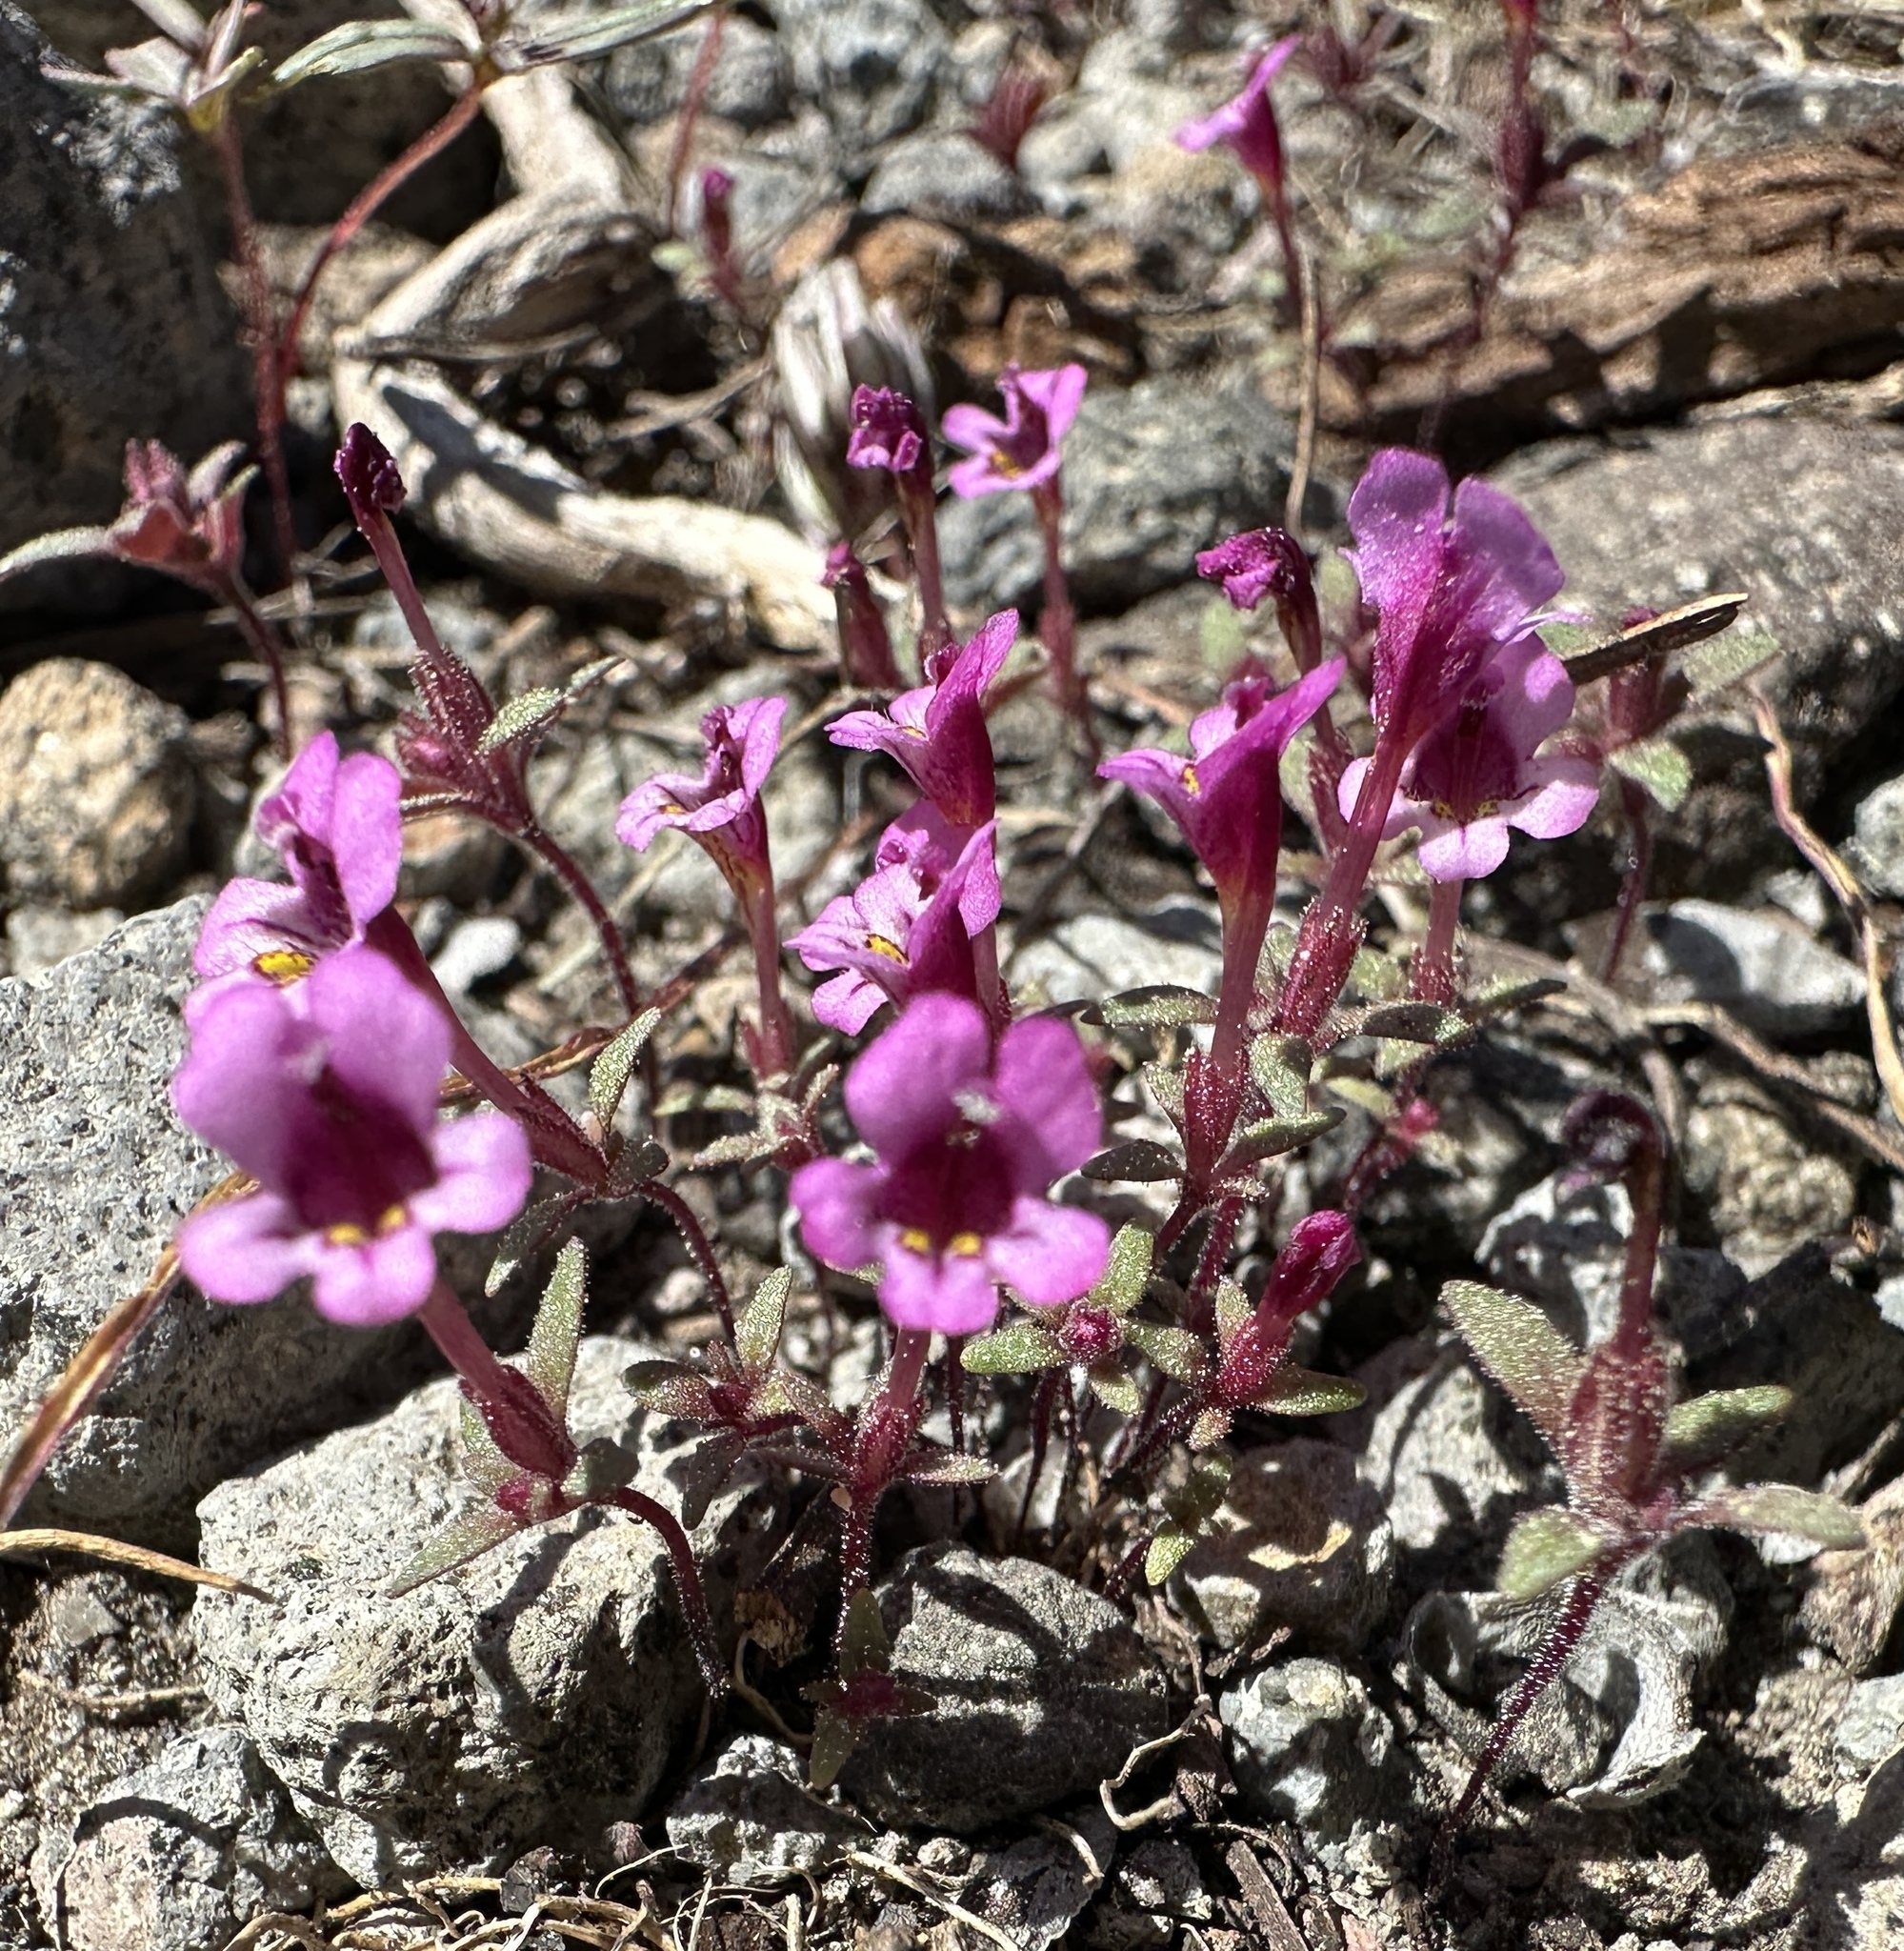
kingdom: Plantae
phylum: Tracheophyta
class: Magnoliopsida
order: Lamiales
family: Phrymaceae
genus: Diplacus
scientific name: Diplacus jepsonii
